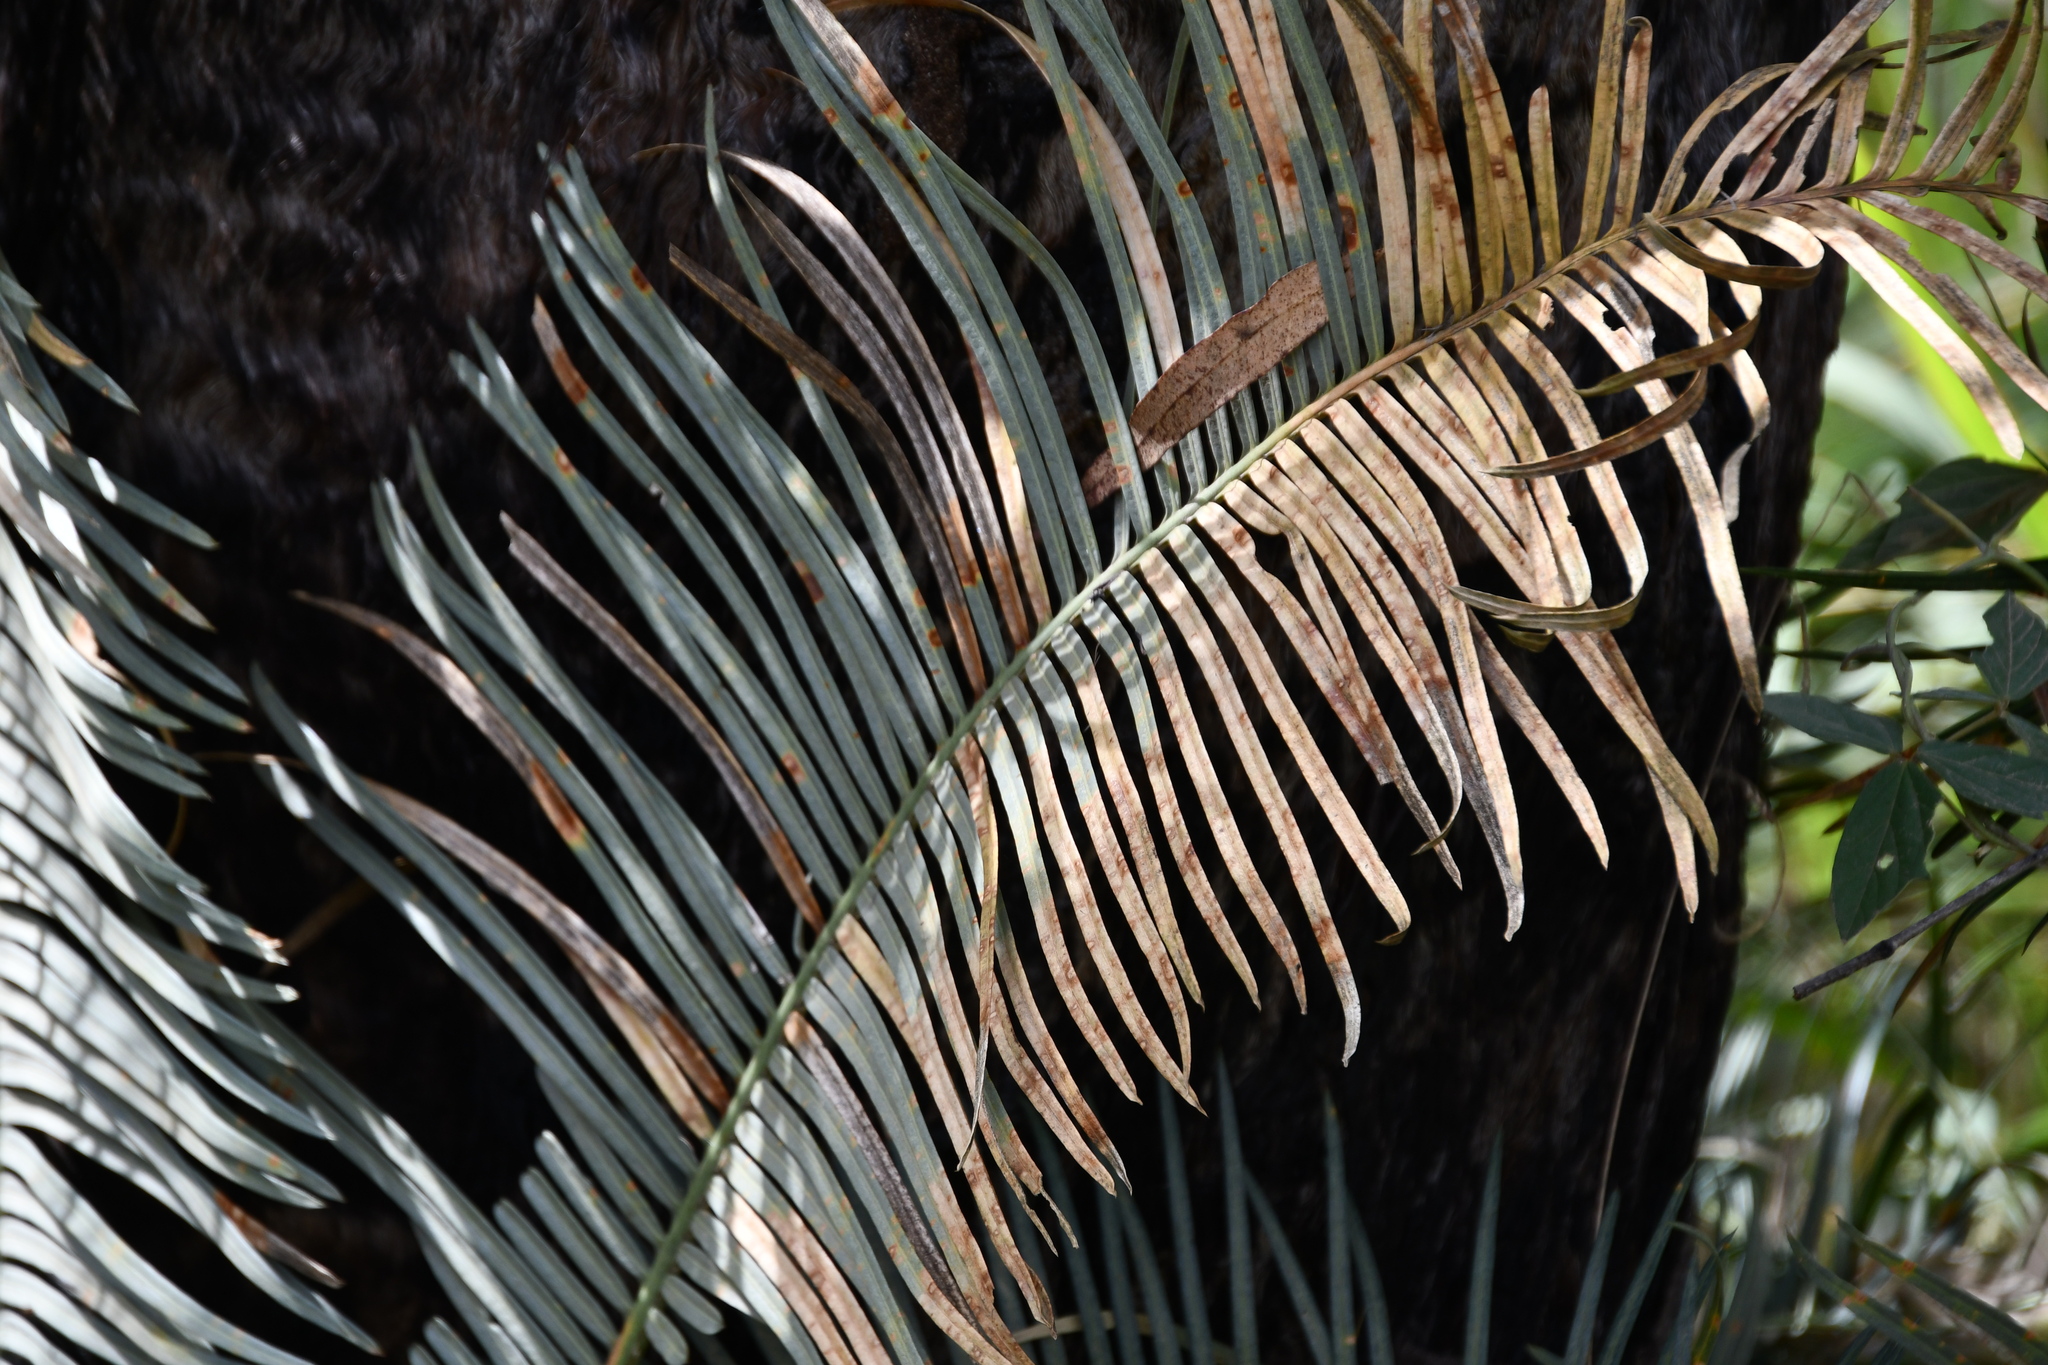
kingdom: Plantae
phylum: Tracheophyta
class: Cycadopsida
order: Cycadales
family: Cycadaceae
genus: Cycas
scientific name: Cycas media
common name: Queensland cycas
